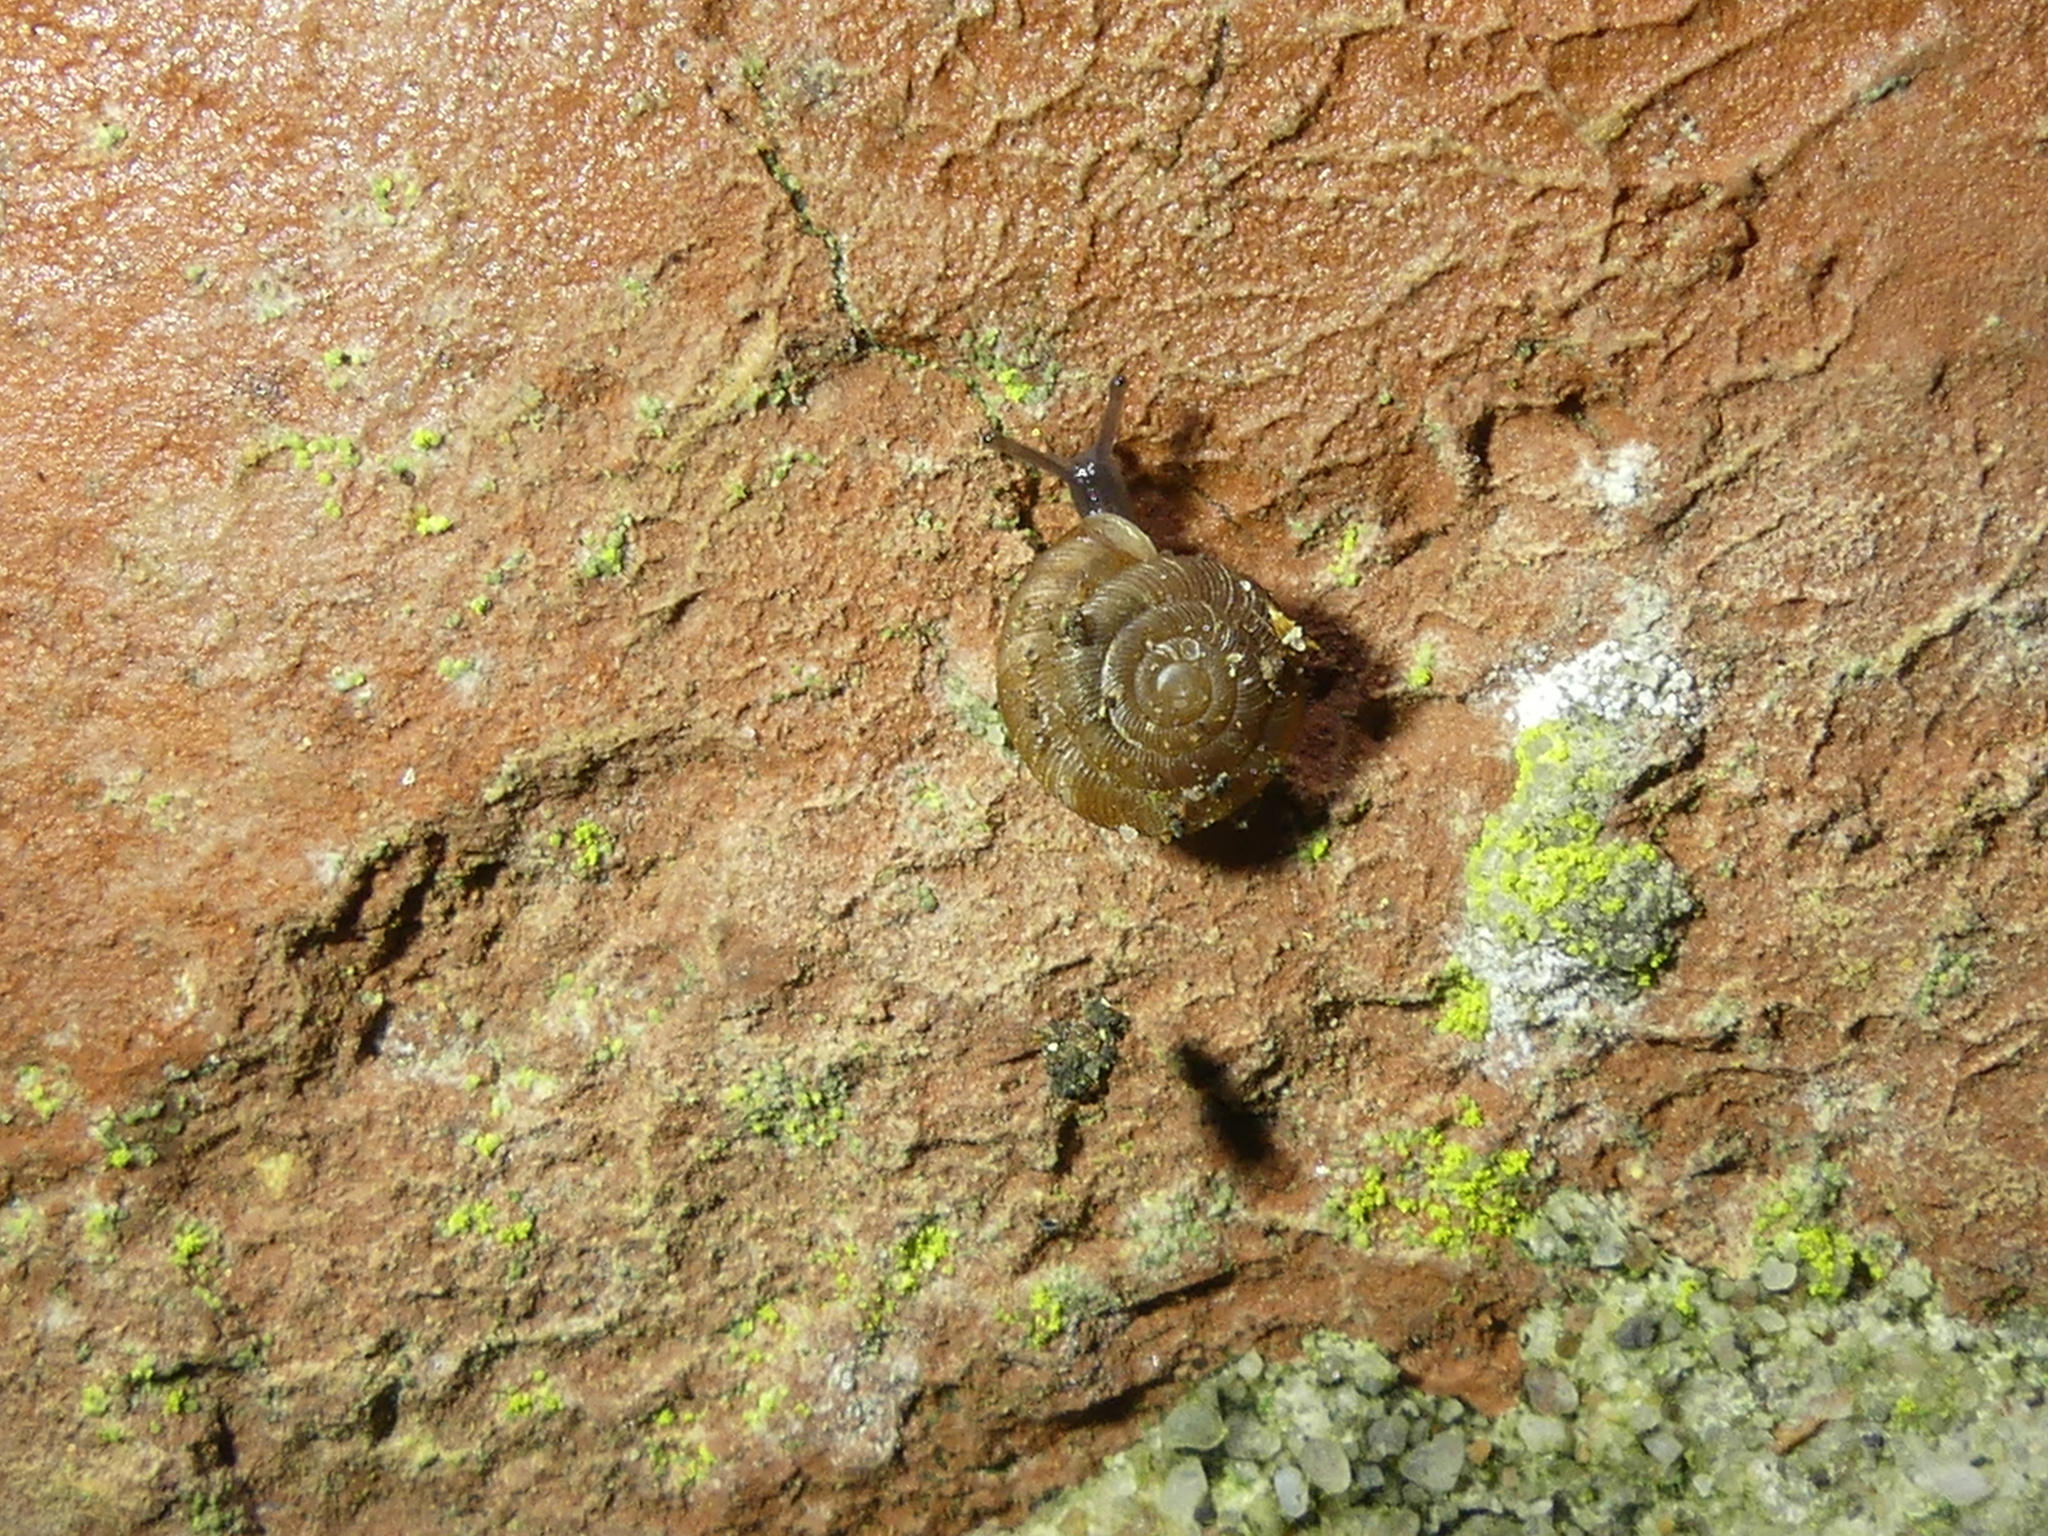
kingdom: Animalia
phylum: Mollusca
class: Gastropoda
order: Stylommatophora
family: Discidae
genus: Discus
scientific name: Discus rotundatus
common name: Rounded snail
